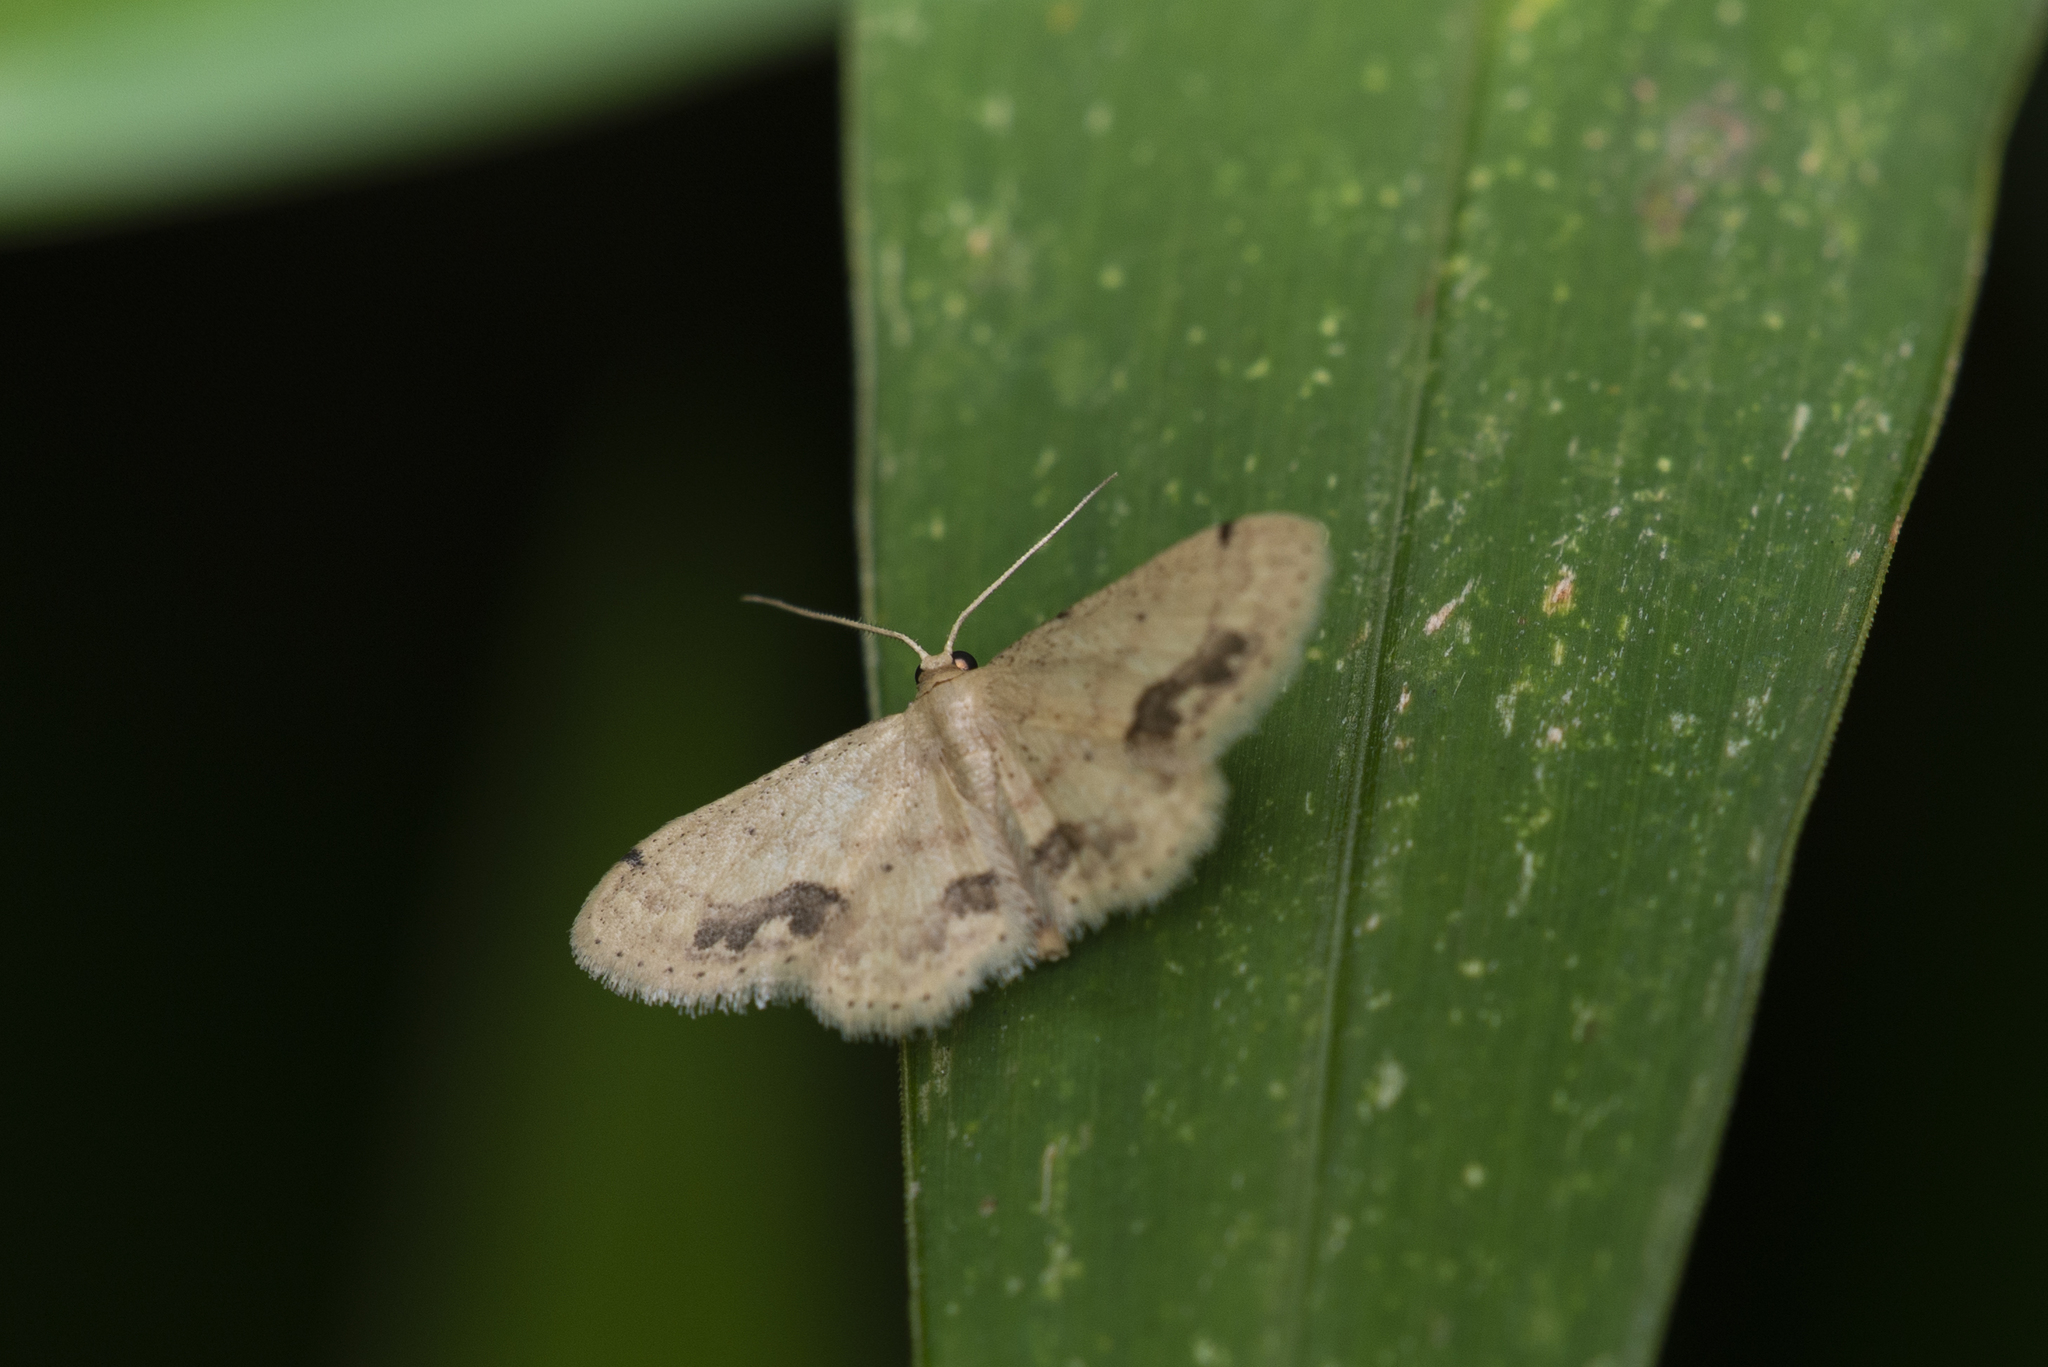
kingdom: Animalia
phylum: Arthropoda
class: Insecta
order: Lepidoptera
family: Geometridae
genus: Idaea
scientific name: Idaea chotaria
